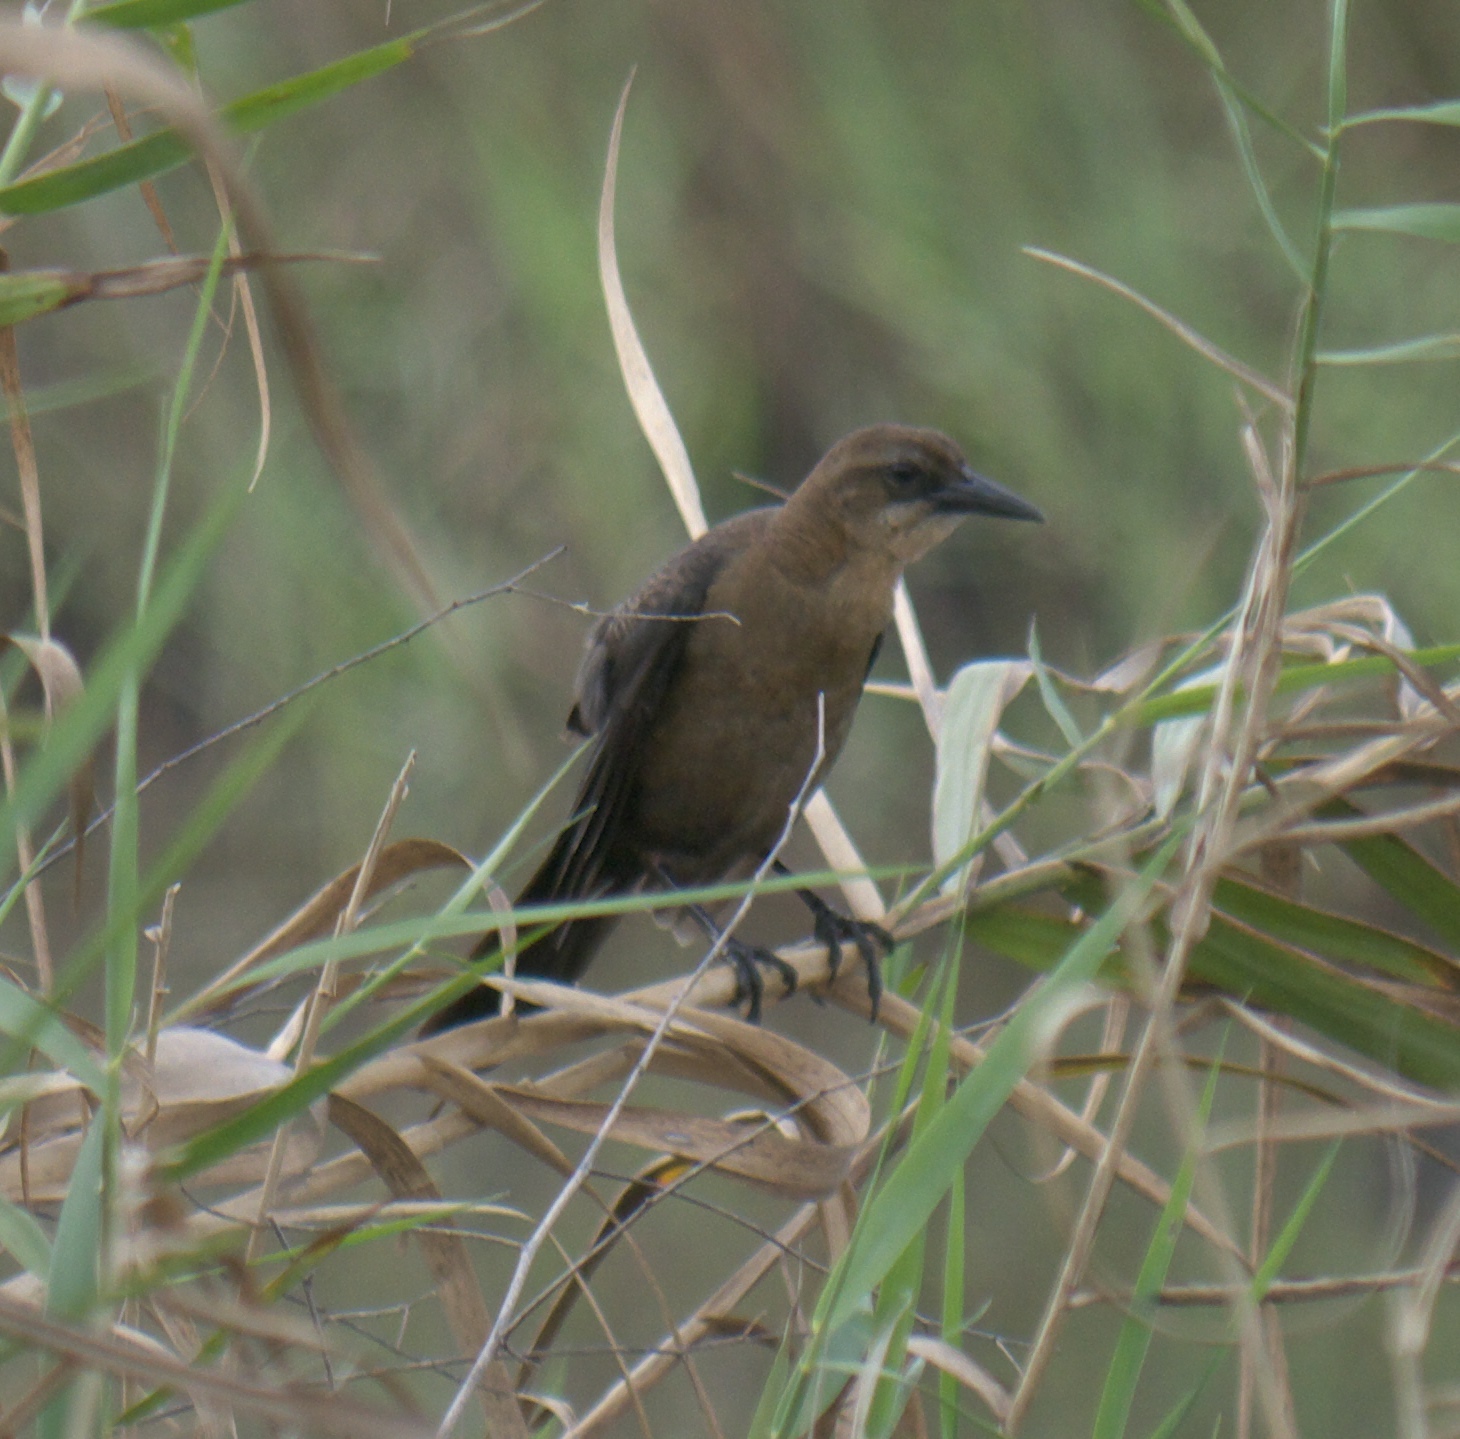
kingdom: Animalia
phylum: Chordata
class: Aves
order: Passeriformes
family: Icteridae
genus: Quiscalus
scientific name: Quiscalus mexicanus
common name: Great-tailed grackle
